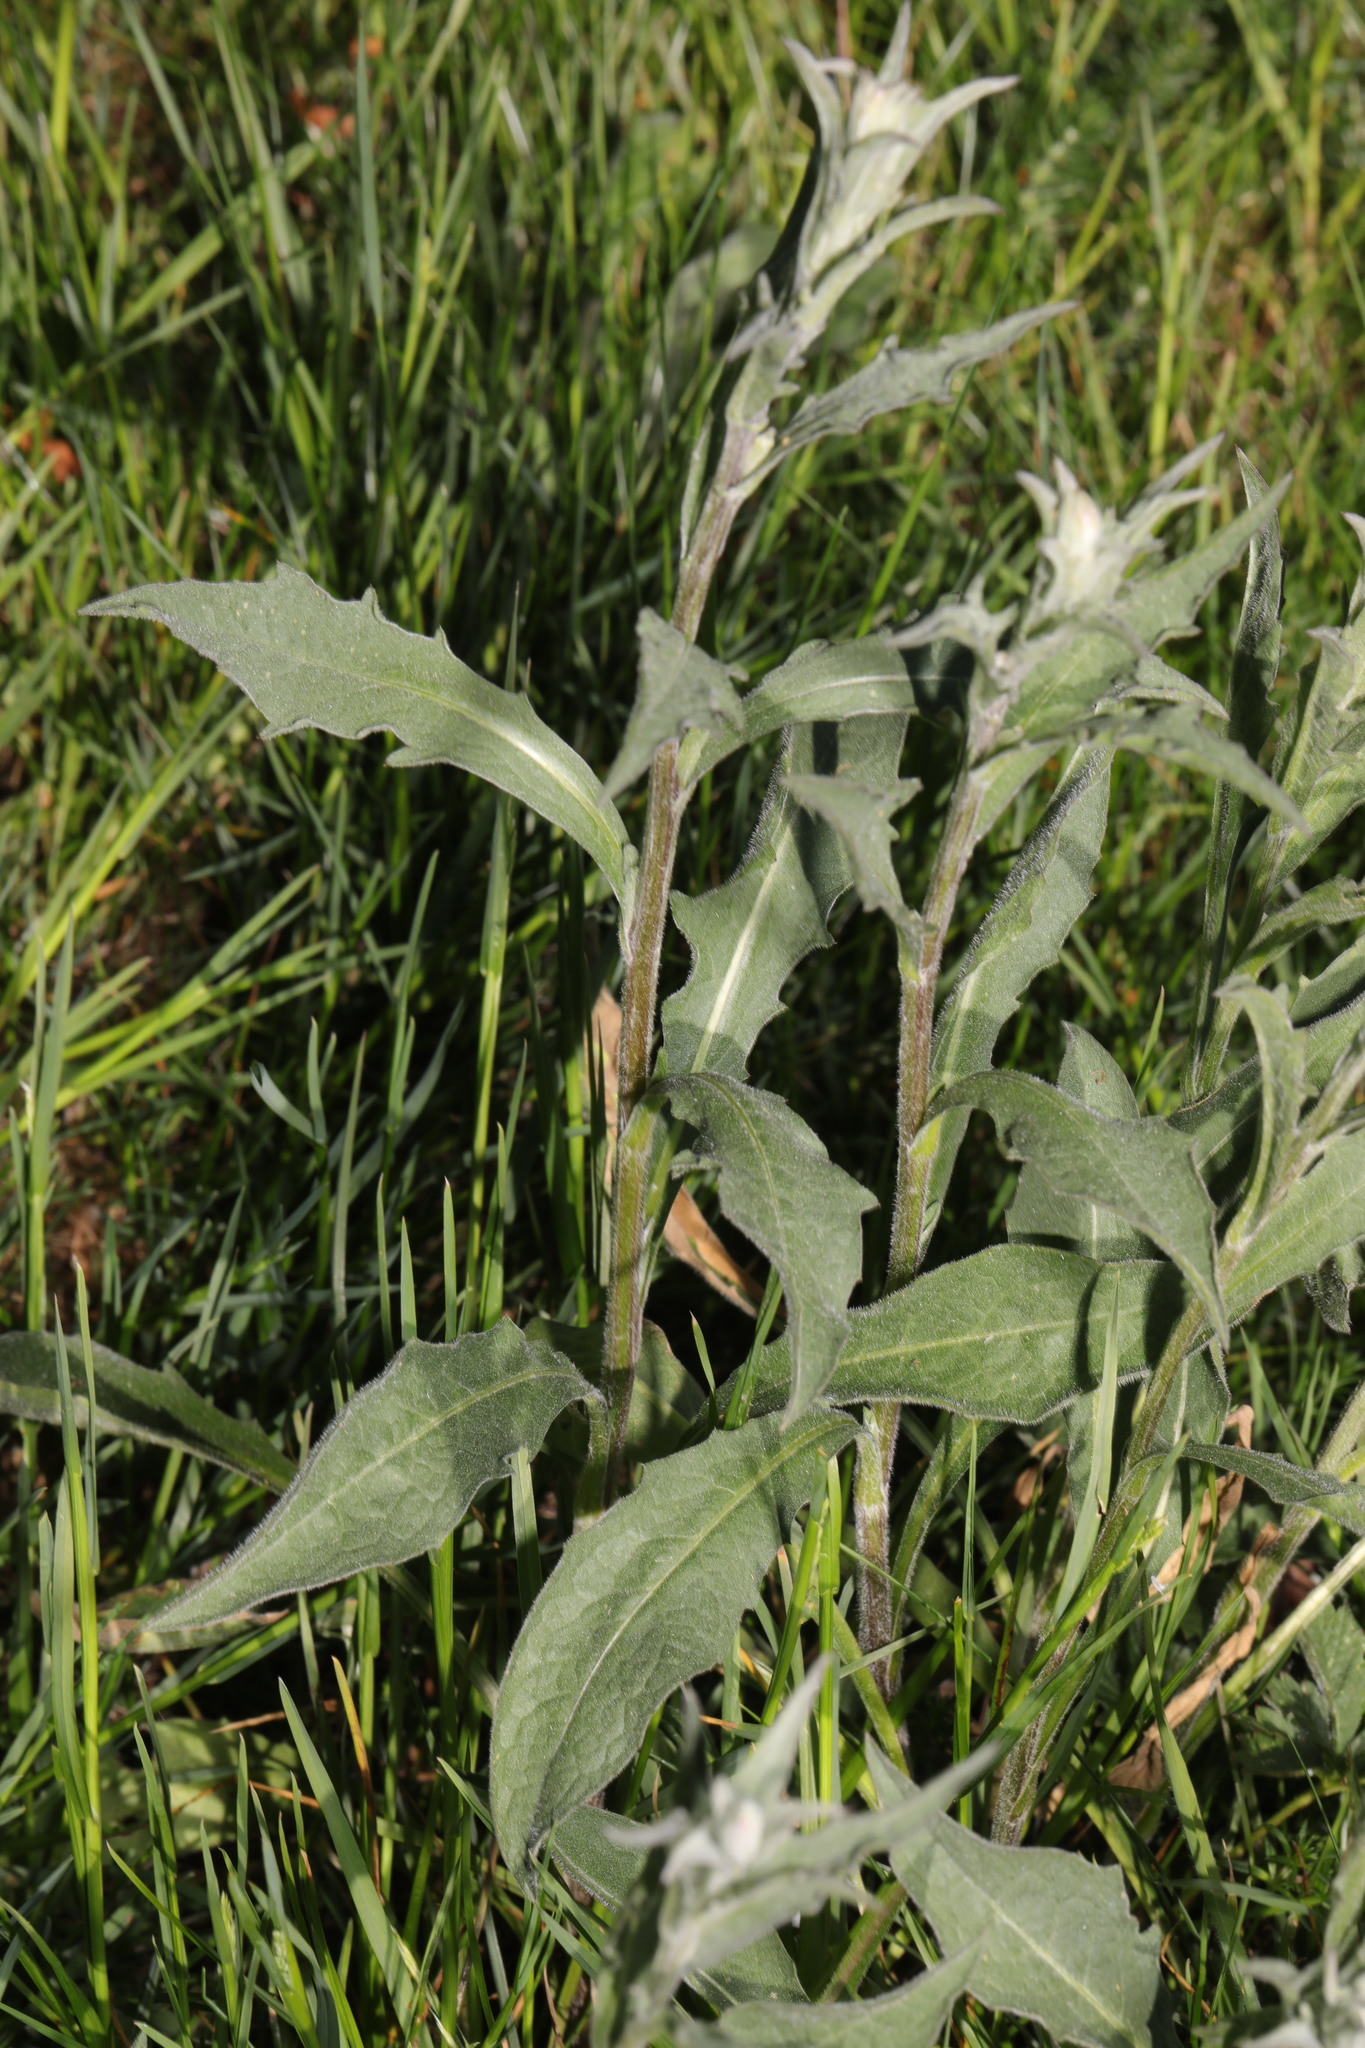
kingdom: Plantae
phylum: Tracheophyta
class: Magnoliopsida
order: Asterales
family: Asteraceae
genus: Centaurea
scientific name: Centaurea nigra
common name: Lesser knapweed
